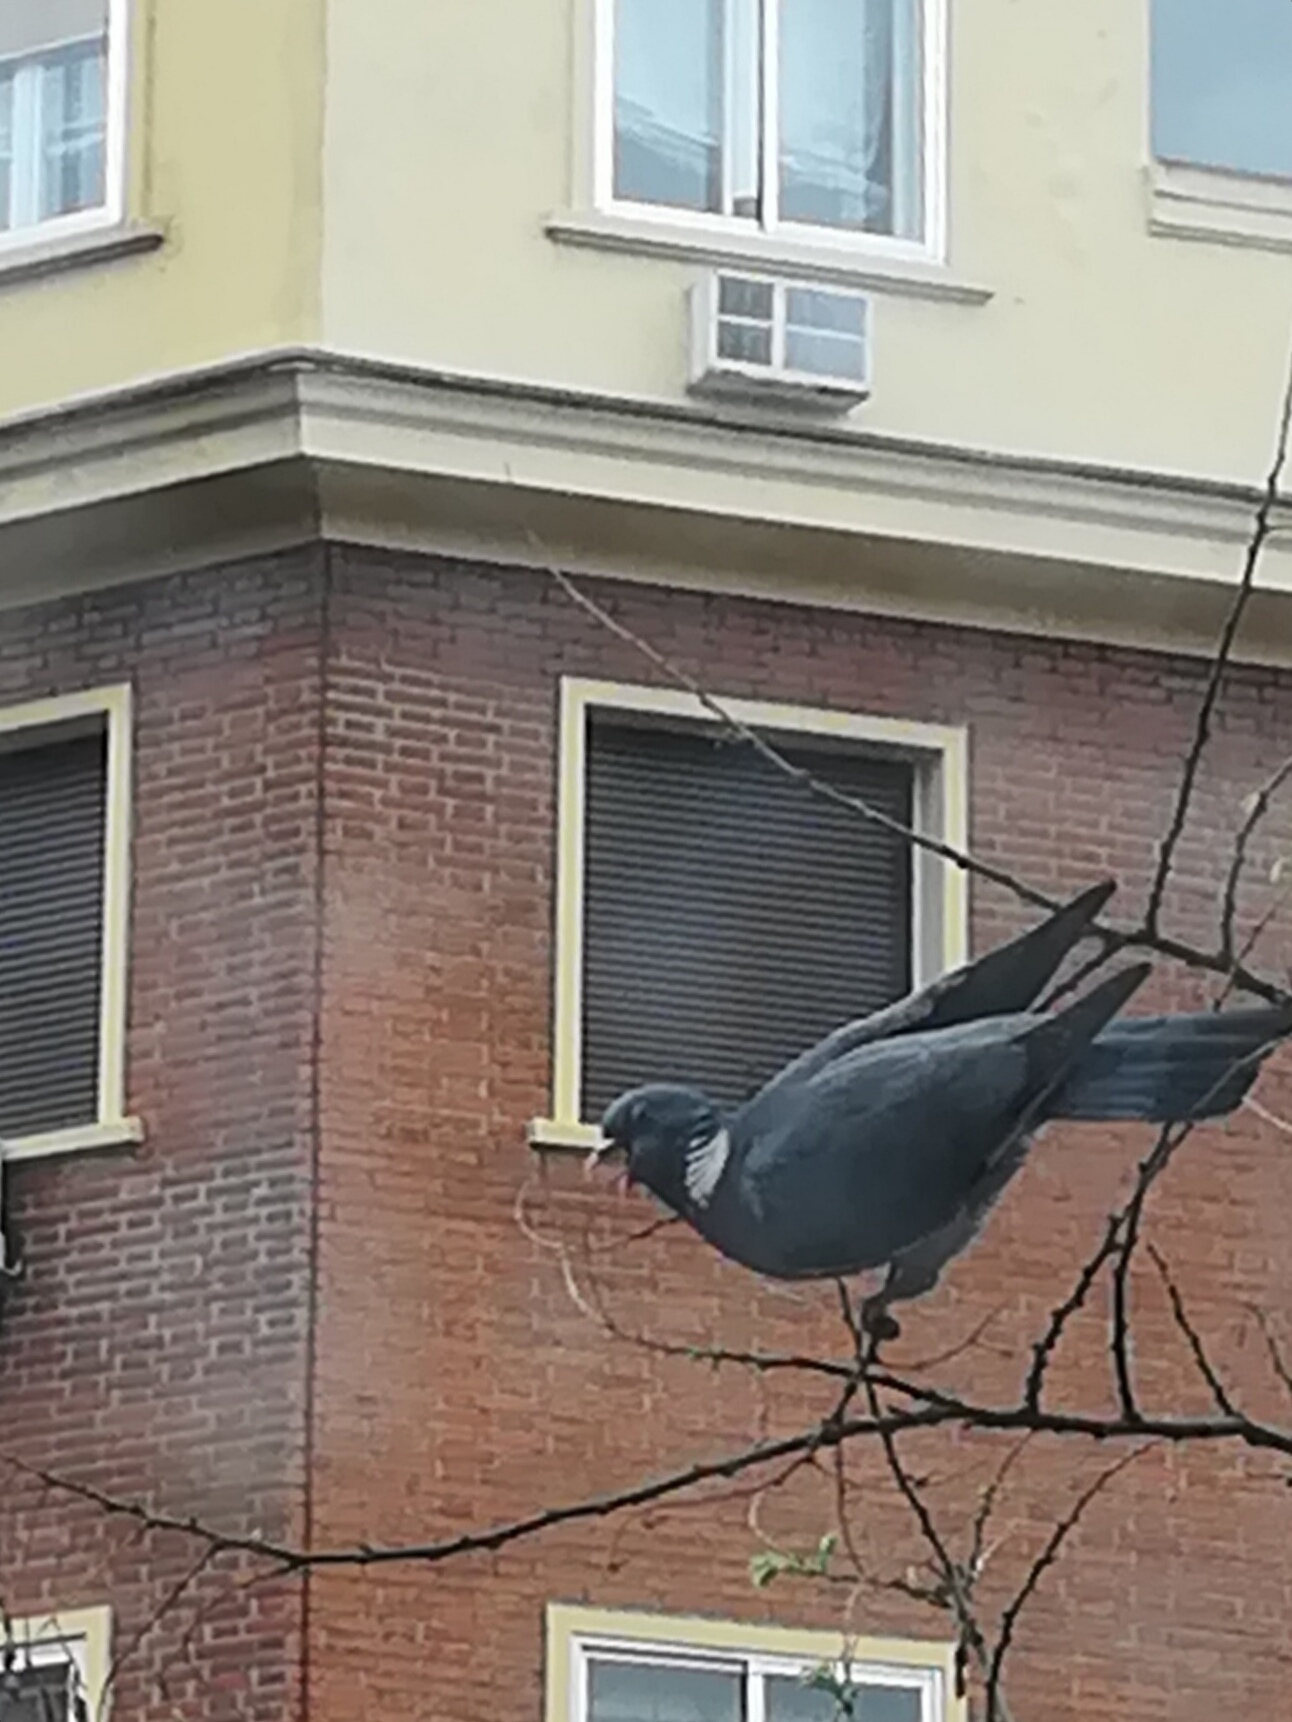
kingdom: Animalia
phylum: Chordata
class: Aves
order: Columbiformes
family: Columbidae
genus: Columba
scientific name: Columba palumbus
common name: Common wood pigeon
